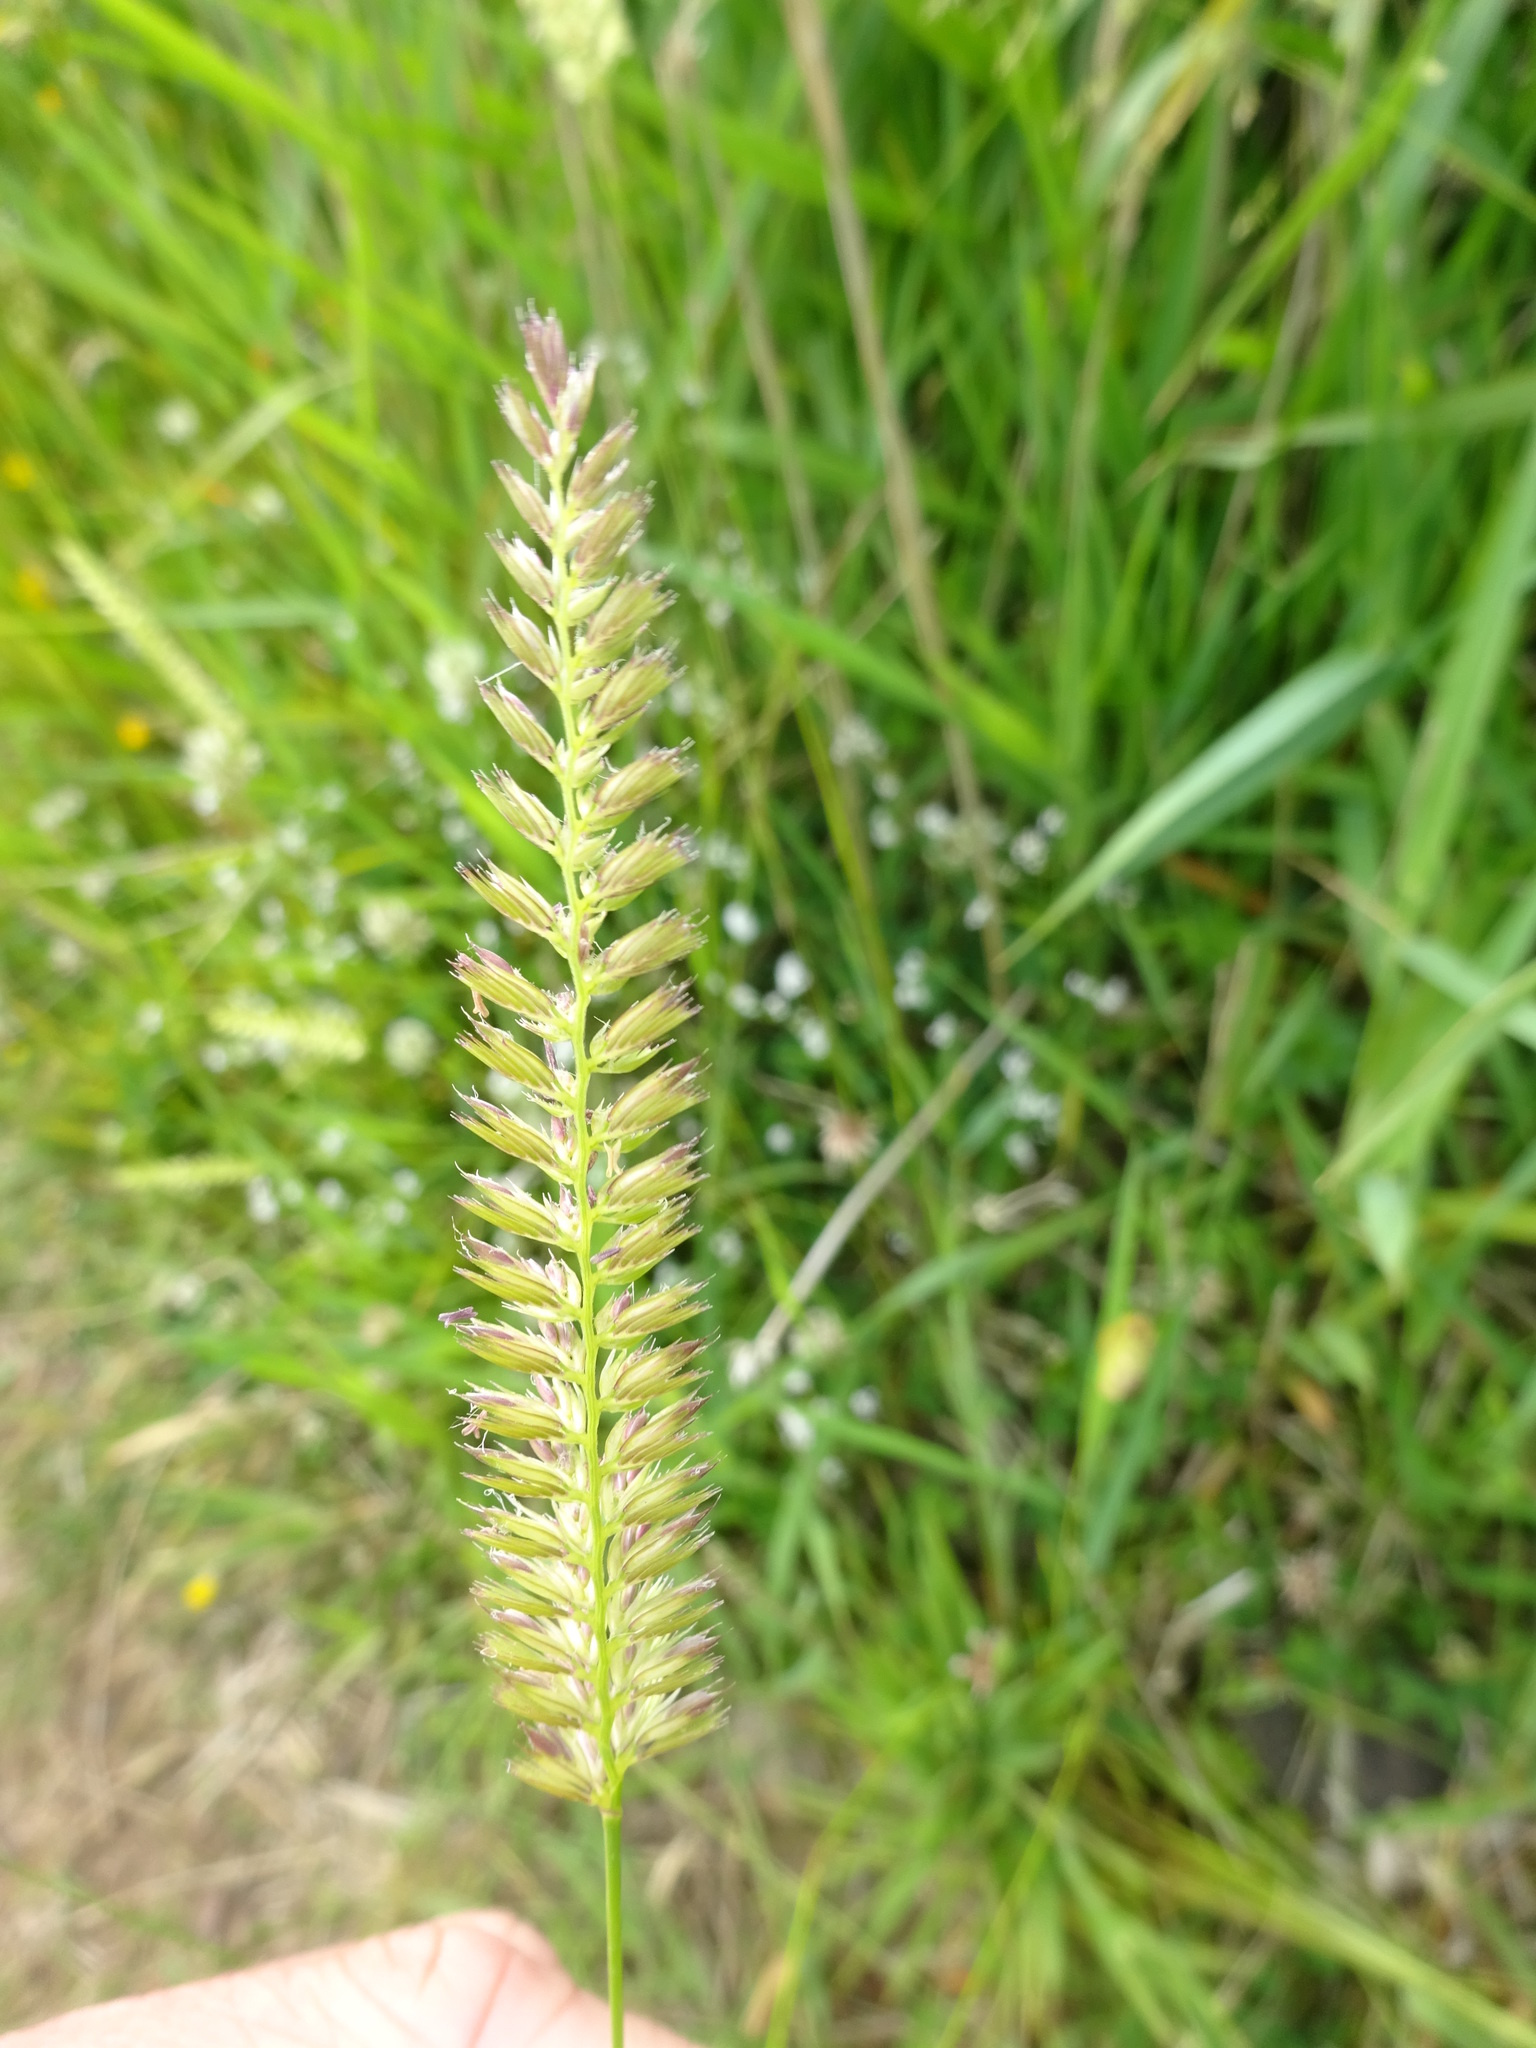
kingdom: Plantae
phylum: Tracheophyta
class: Liliopsida
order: Poales
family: Poaceae
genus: Cynosurus
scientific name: Cynosurus cristatus
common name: Crested dog's-tail
